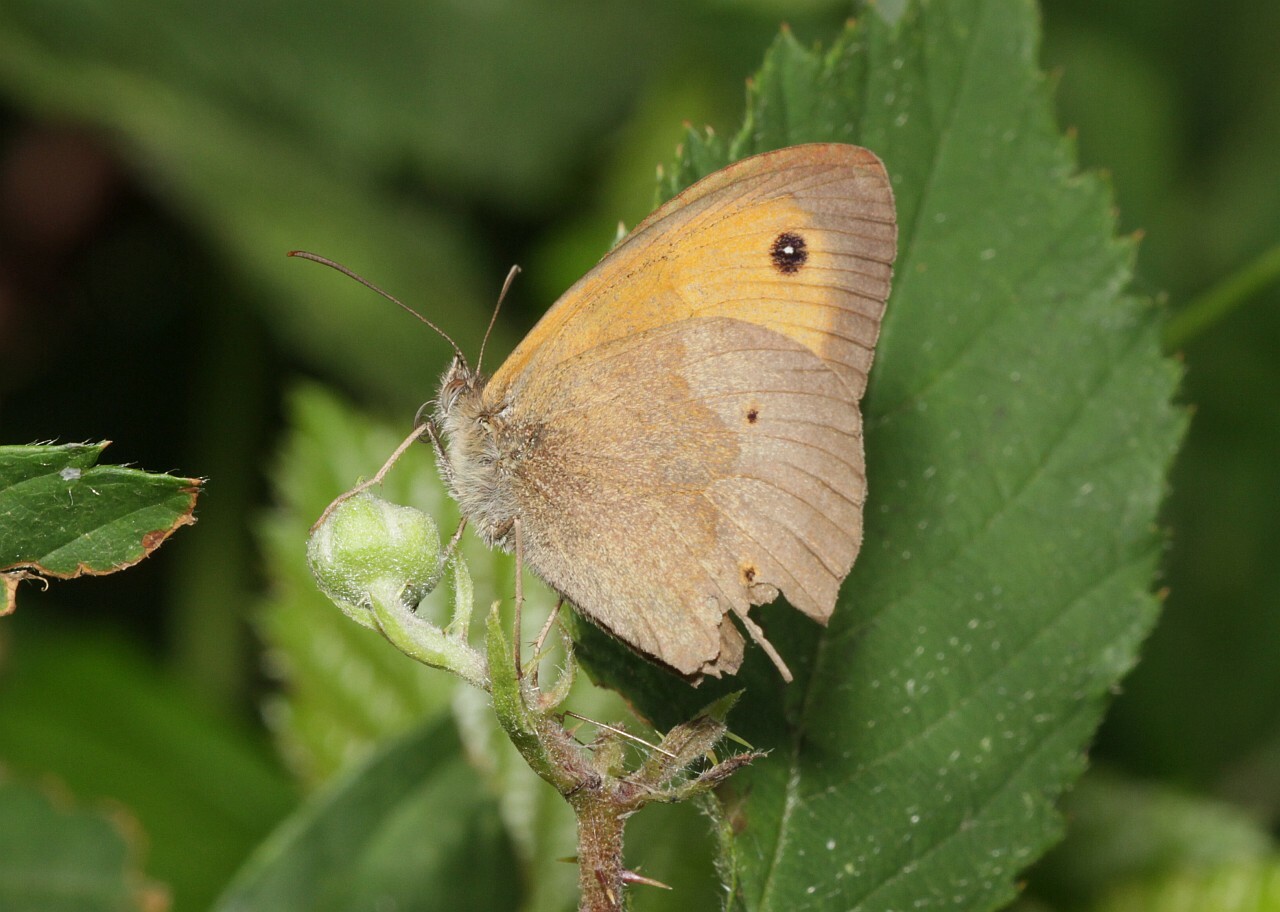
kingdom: Animalia
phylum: Arthropoda
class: Insecta
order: Lepidoptera
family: Nymphalidae
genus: Maniola
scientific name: Maniola jurtina
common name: Meadow brown
